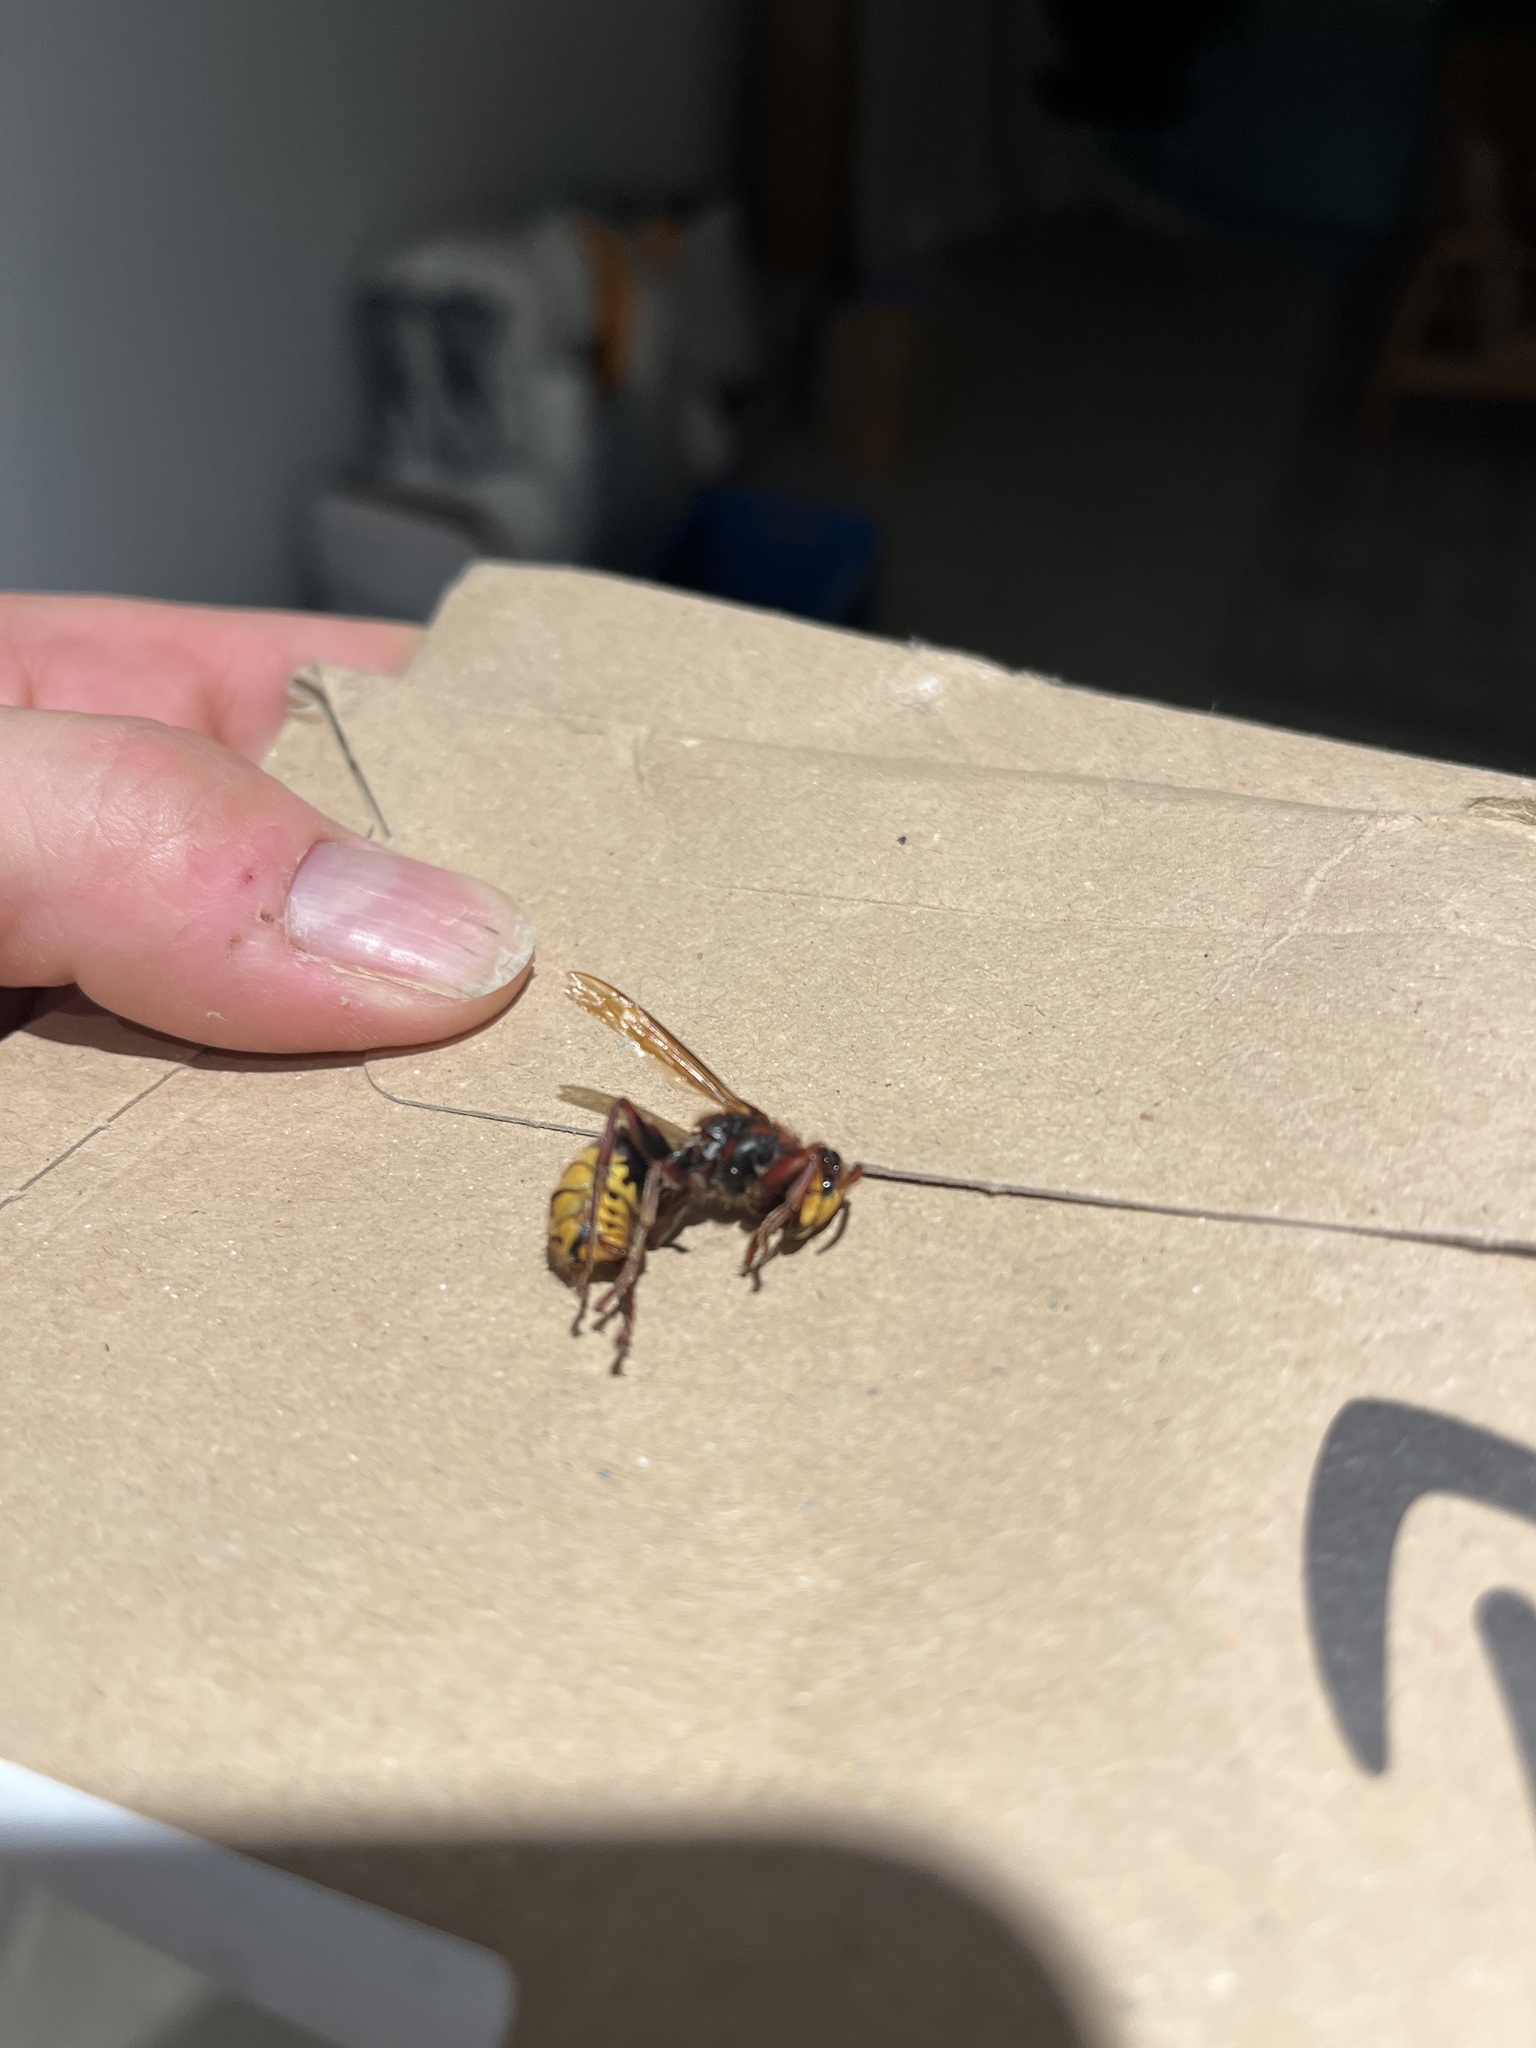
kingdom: Animalia
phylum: Arthropoda
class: Insecta
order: Hymenoptera
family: Vespidae
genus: Vespa
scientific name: Vespa crabro
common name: Hornet
